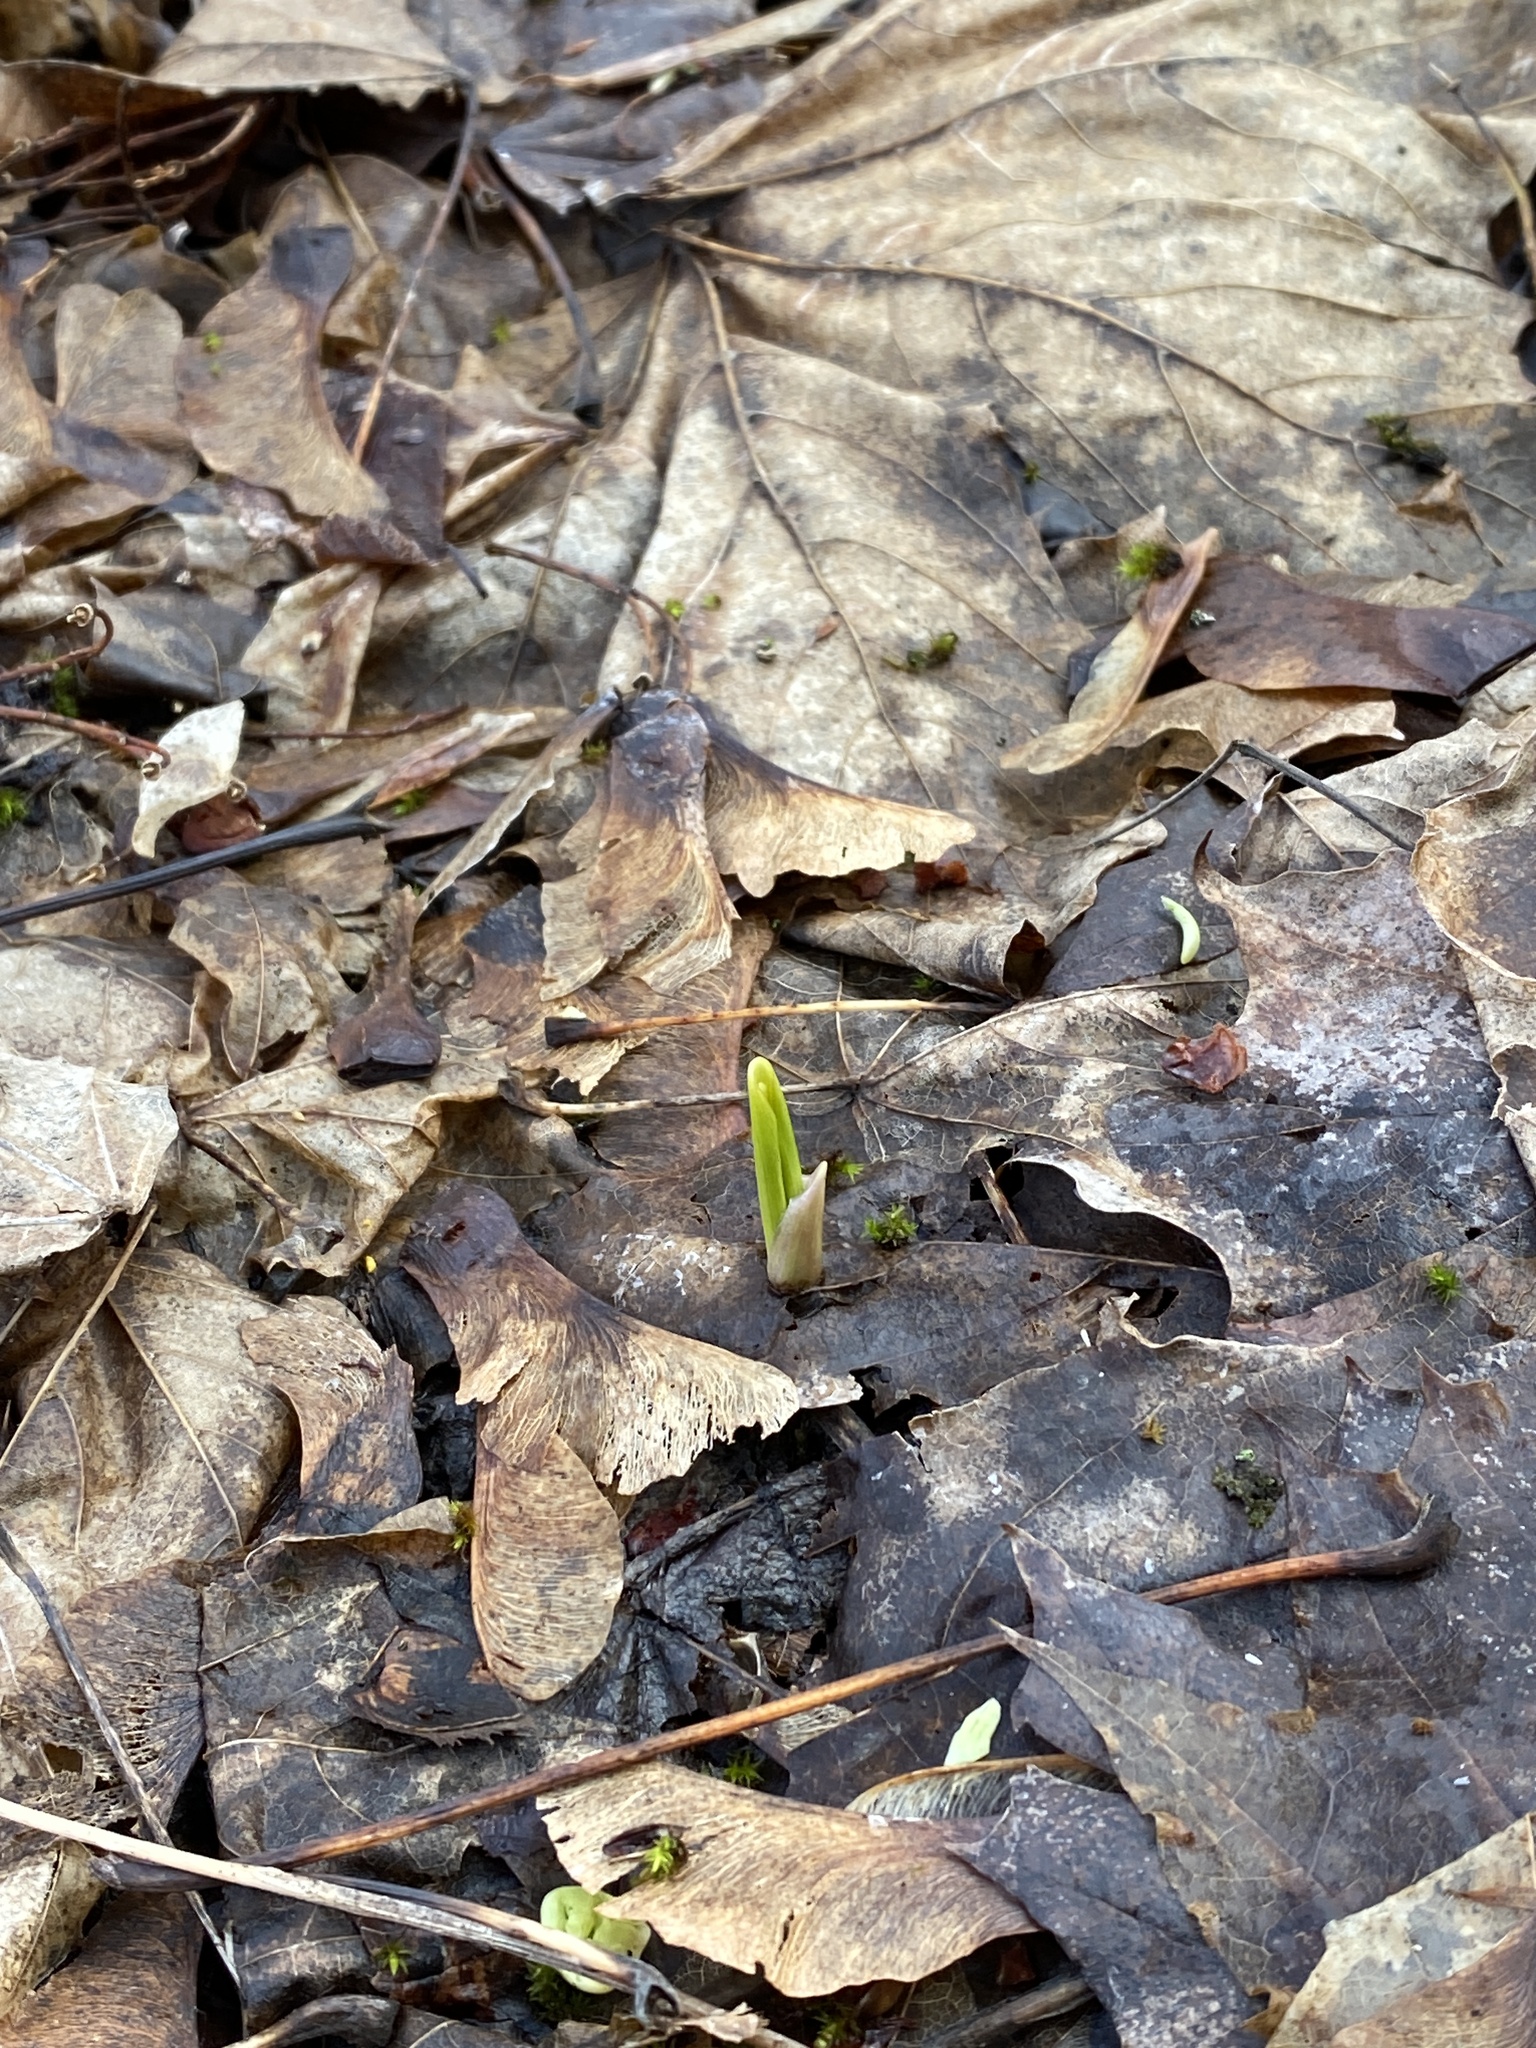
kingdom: Plantae
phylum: Tracheophyta
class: Liliopsida
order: Asparagales
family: Amaryllidaceae
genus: Allium
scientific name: Allium tricoccum
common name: Ramp
